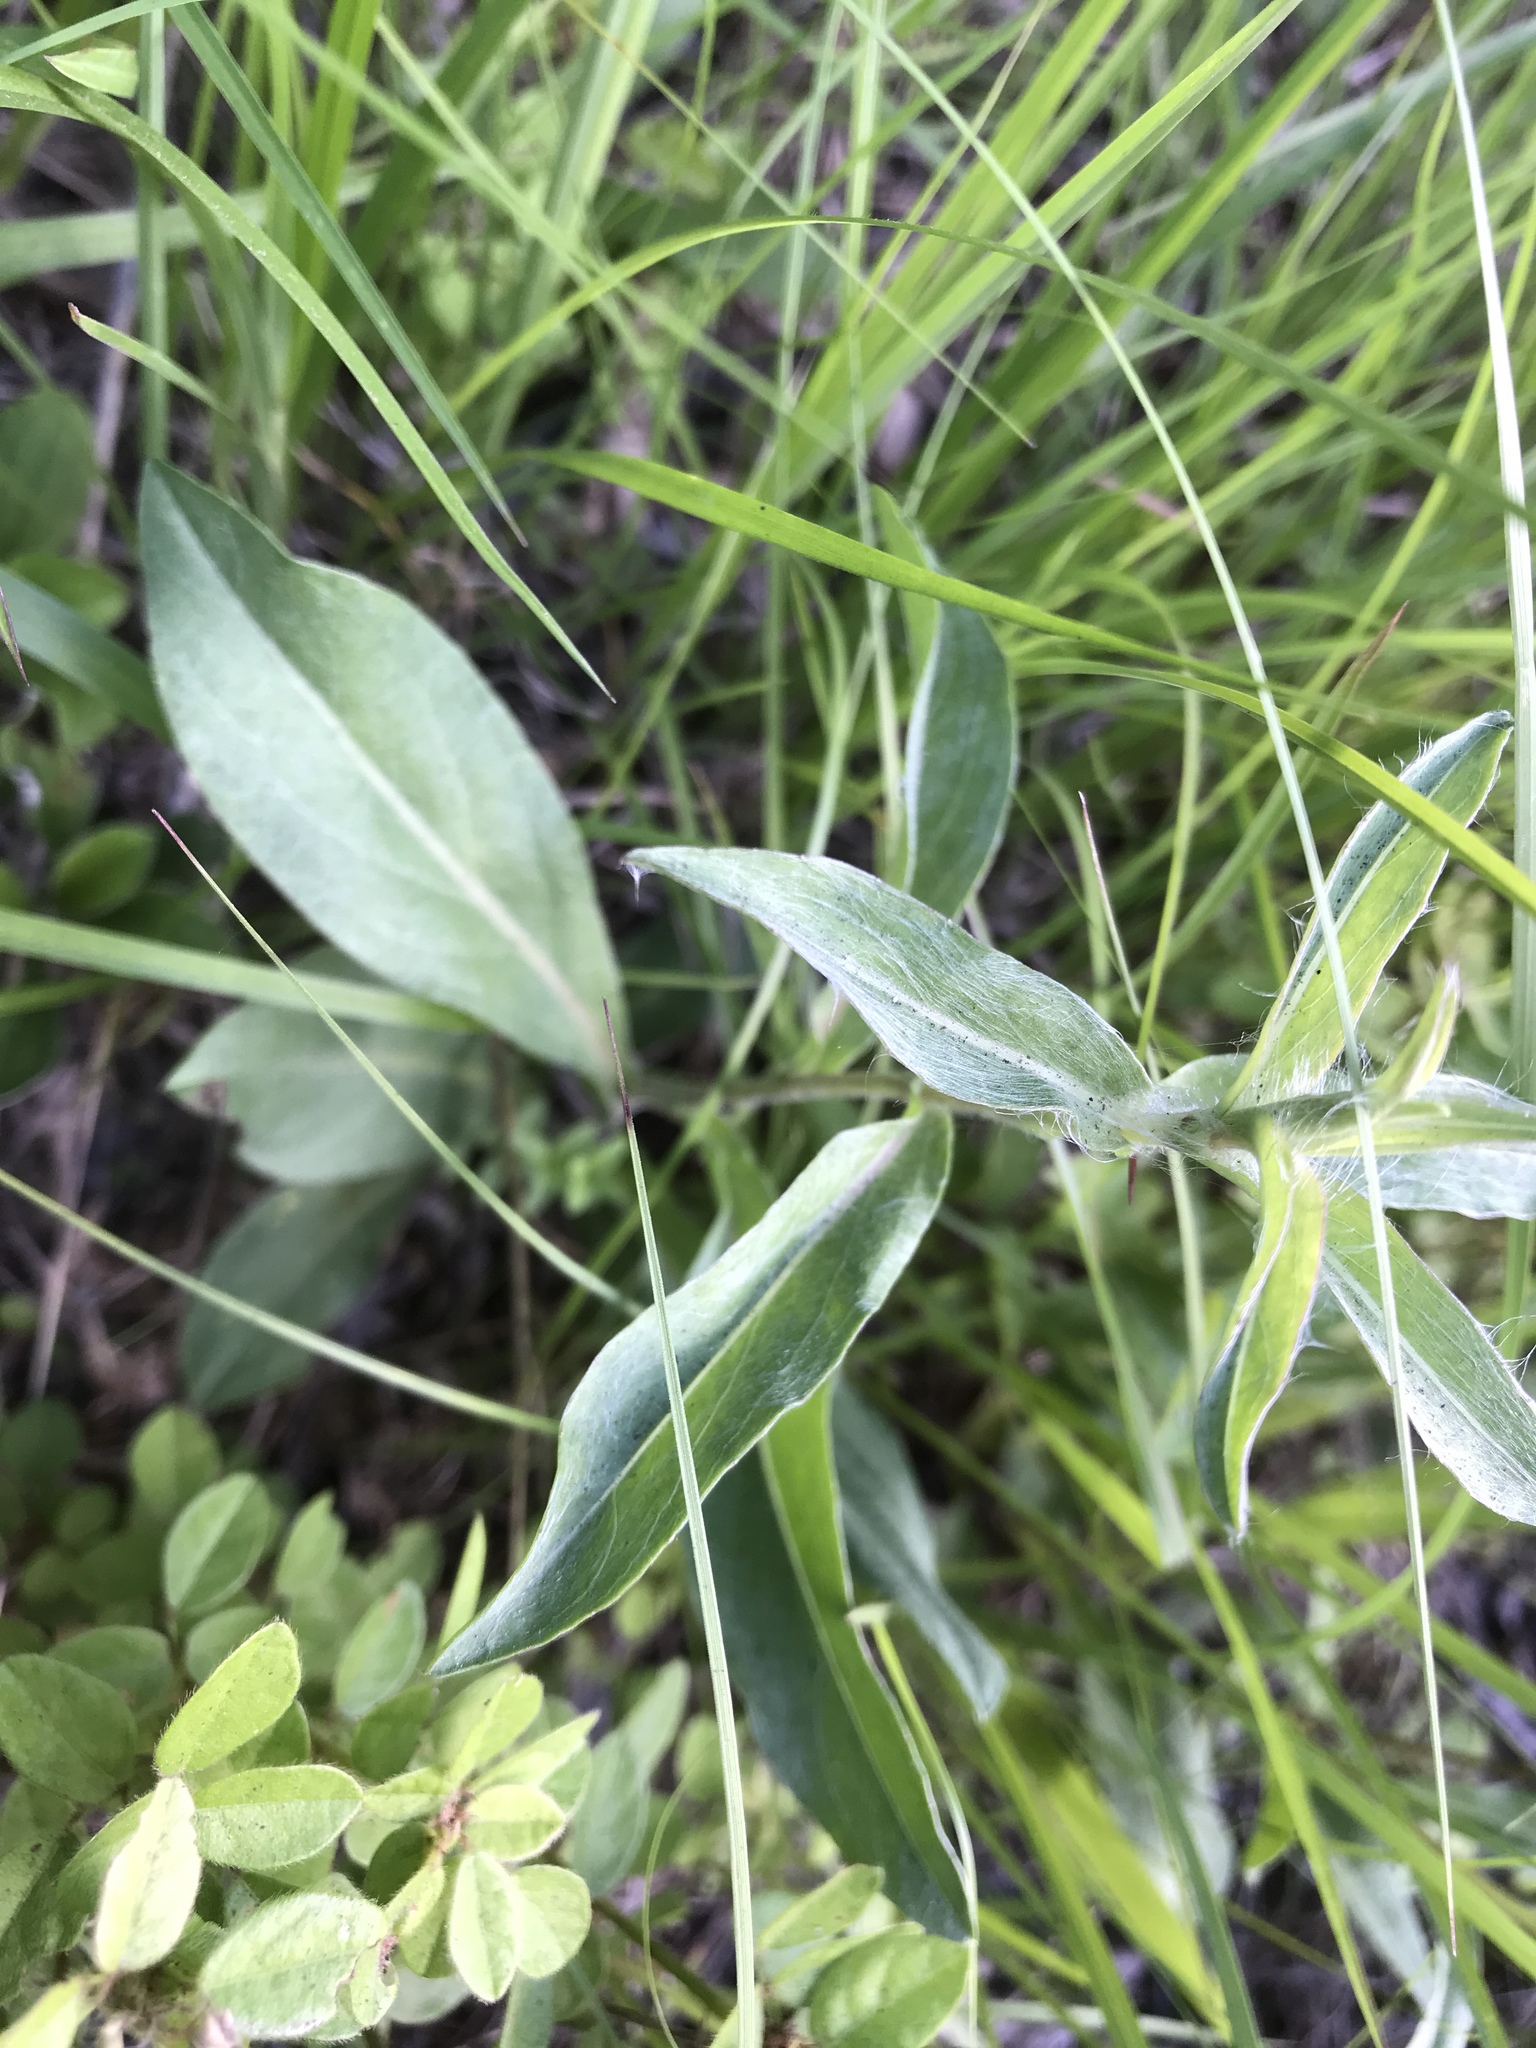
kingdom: Plantae
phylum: Tracheophyta
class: Magnoliopsida
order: Asterales
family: Asteraceae
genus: Chrysopsis
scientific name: Chrysopsis mariana
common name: Maryland golden-aster
